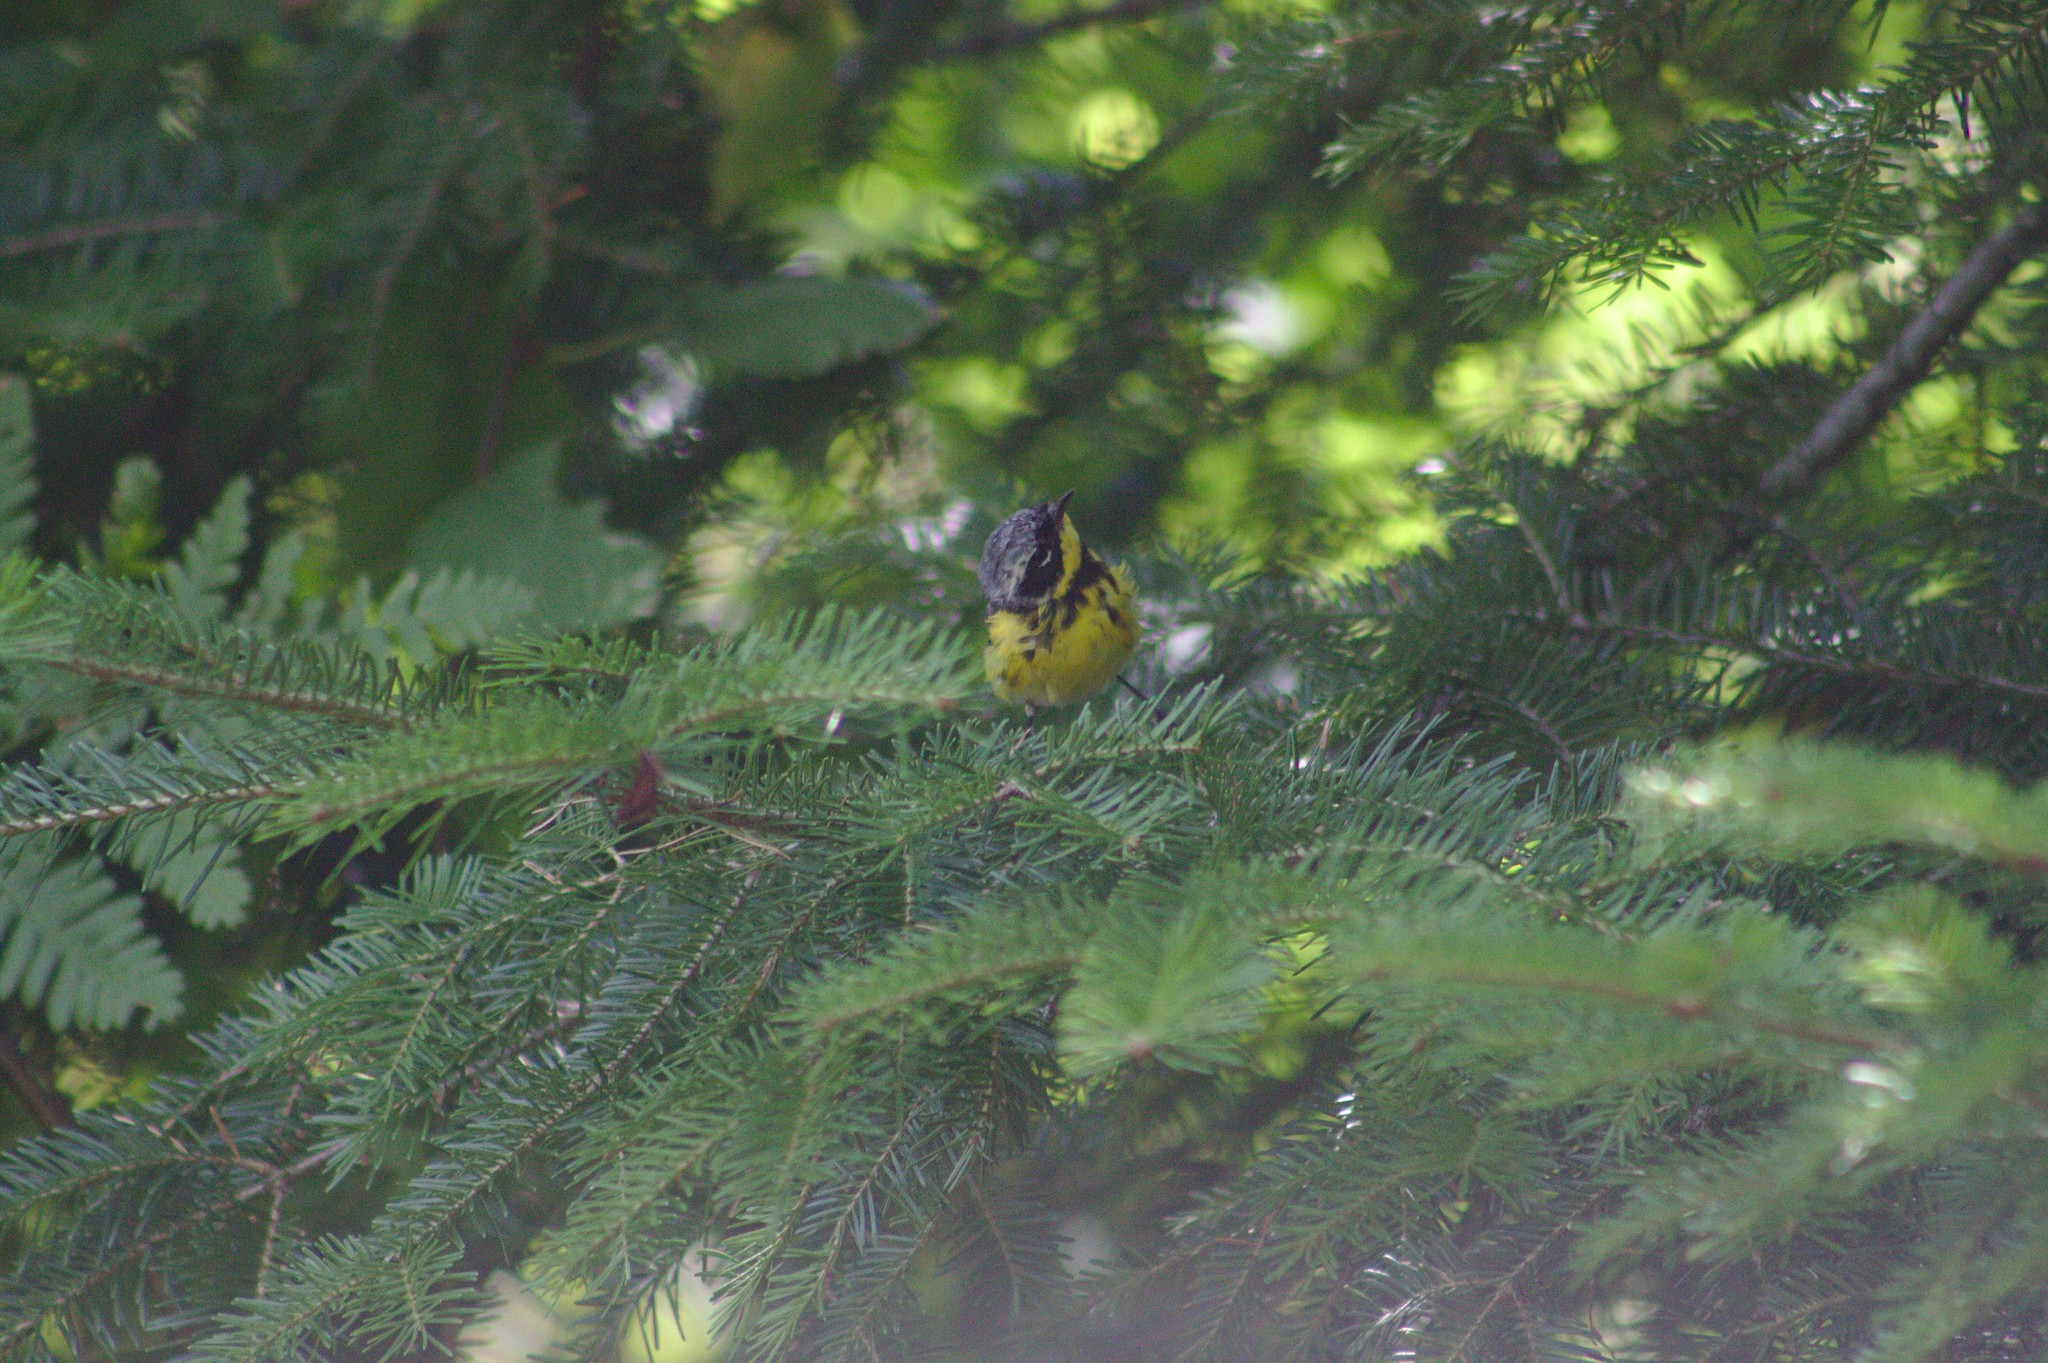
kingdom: Animalia
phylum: Chordata
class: Aves
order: Passeriformes
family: Parulidae
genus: Setophaga
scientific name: Setophaga magnolia
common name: Magnolia warbler
